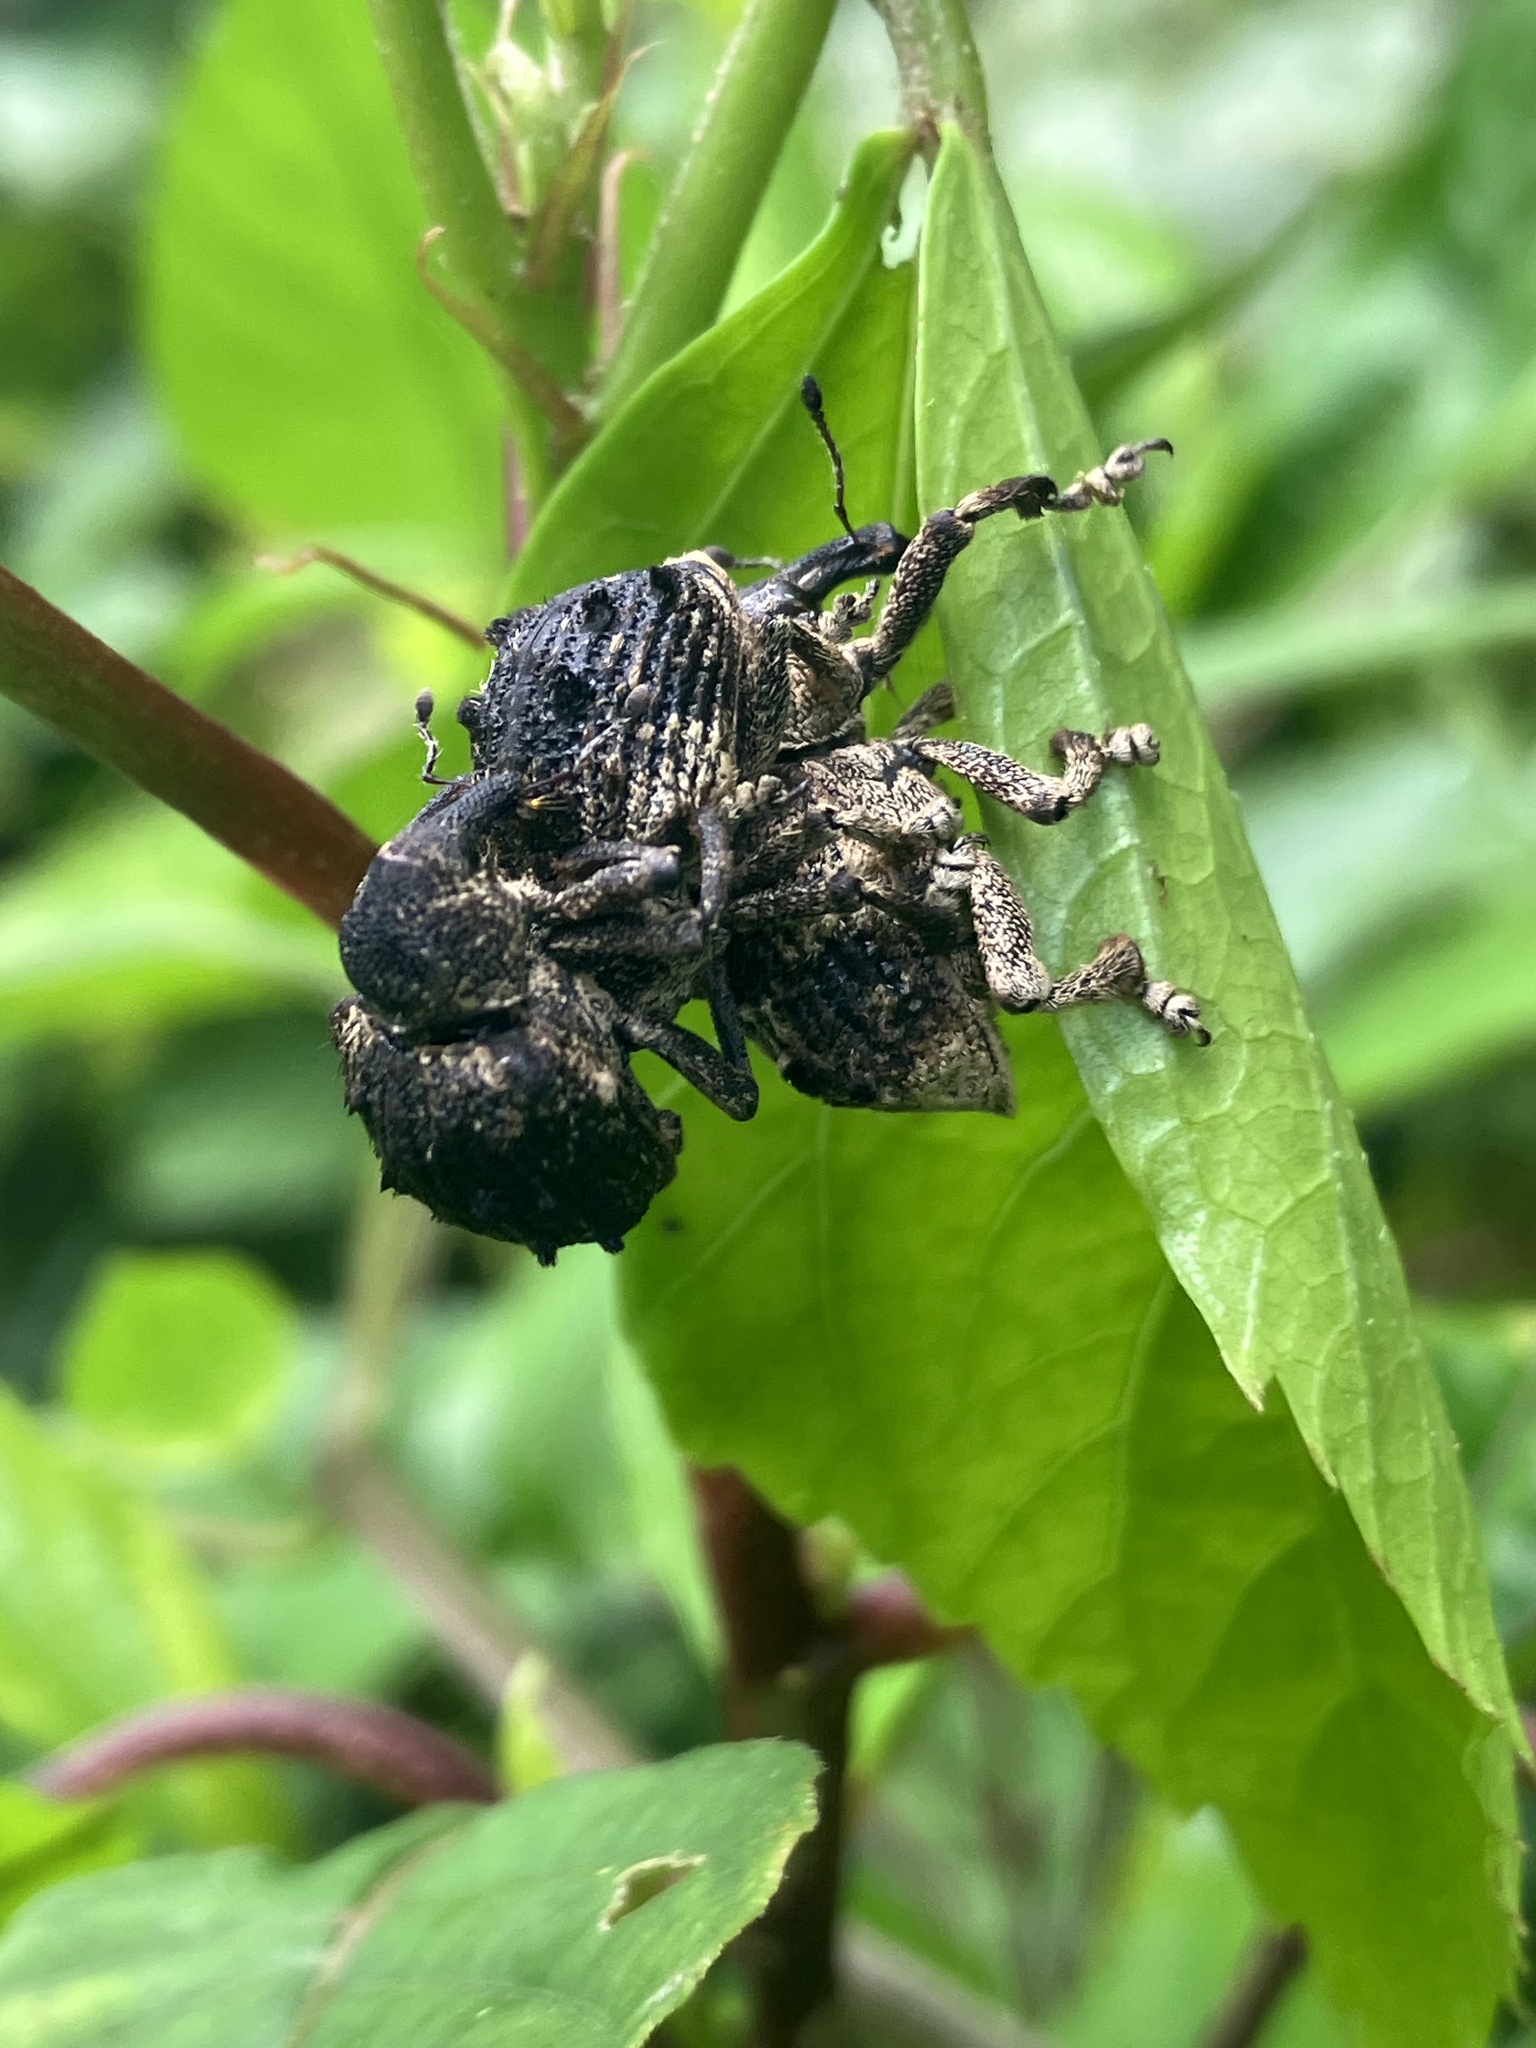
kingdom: Animalia
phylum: Arthropoda
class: Insecta
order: Coleoptera
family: Brachyceridae
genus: Desmidophorus
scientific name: Desmidophorus crassus
